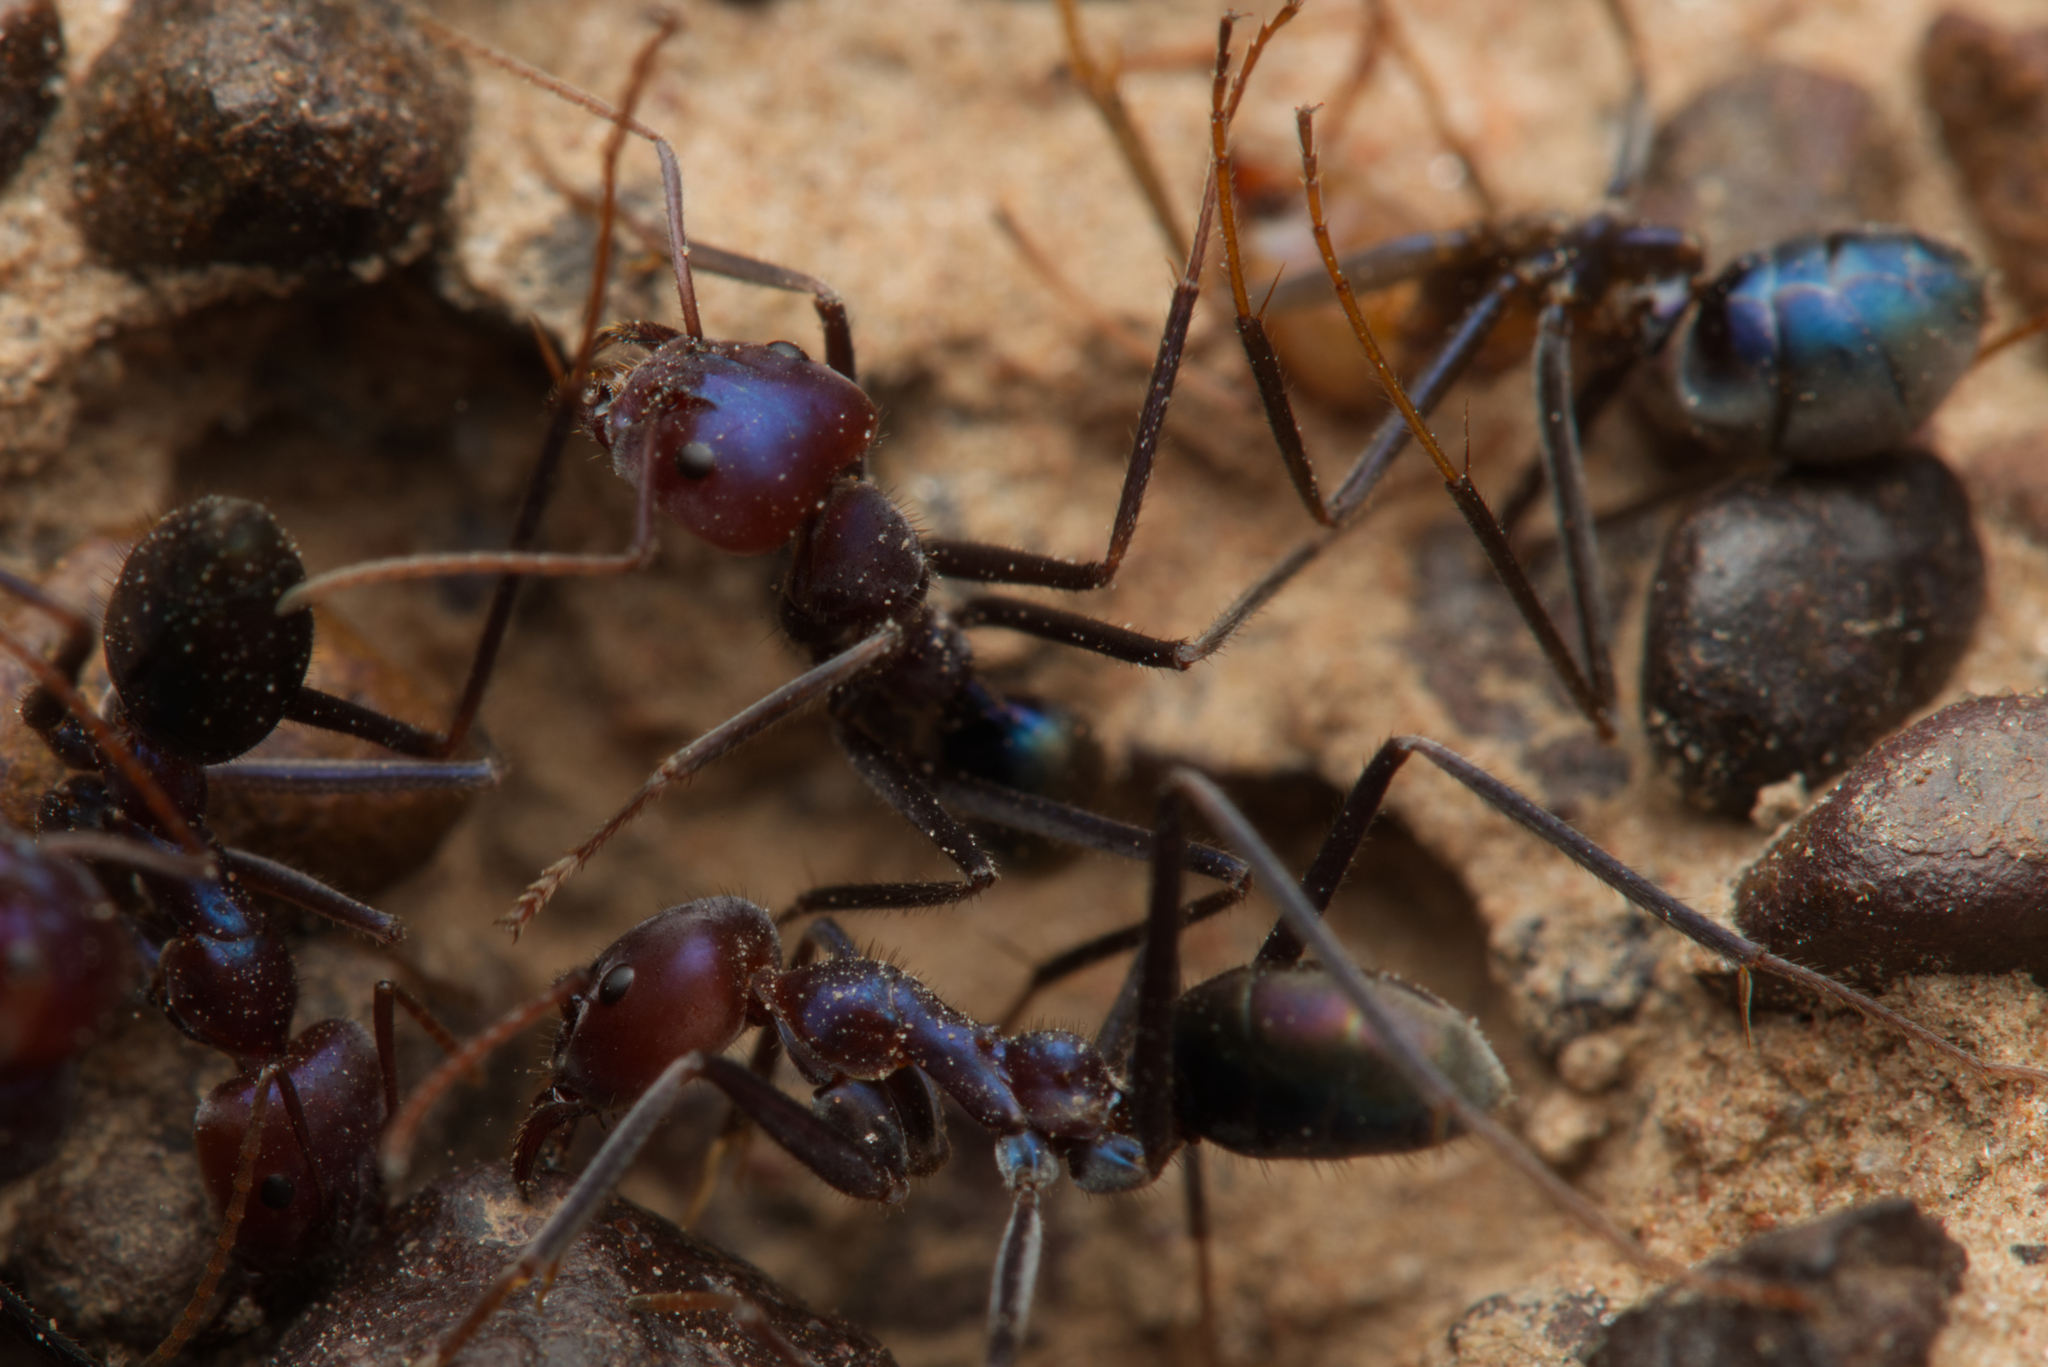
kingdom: Animalia
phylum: Arthropoda
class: Insecta
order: Hymenoptera
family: Formicidae
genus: Iridomyrmex
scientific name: Iridomyrmex purpureus
